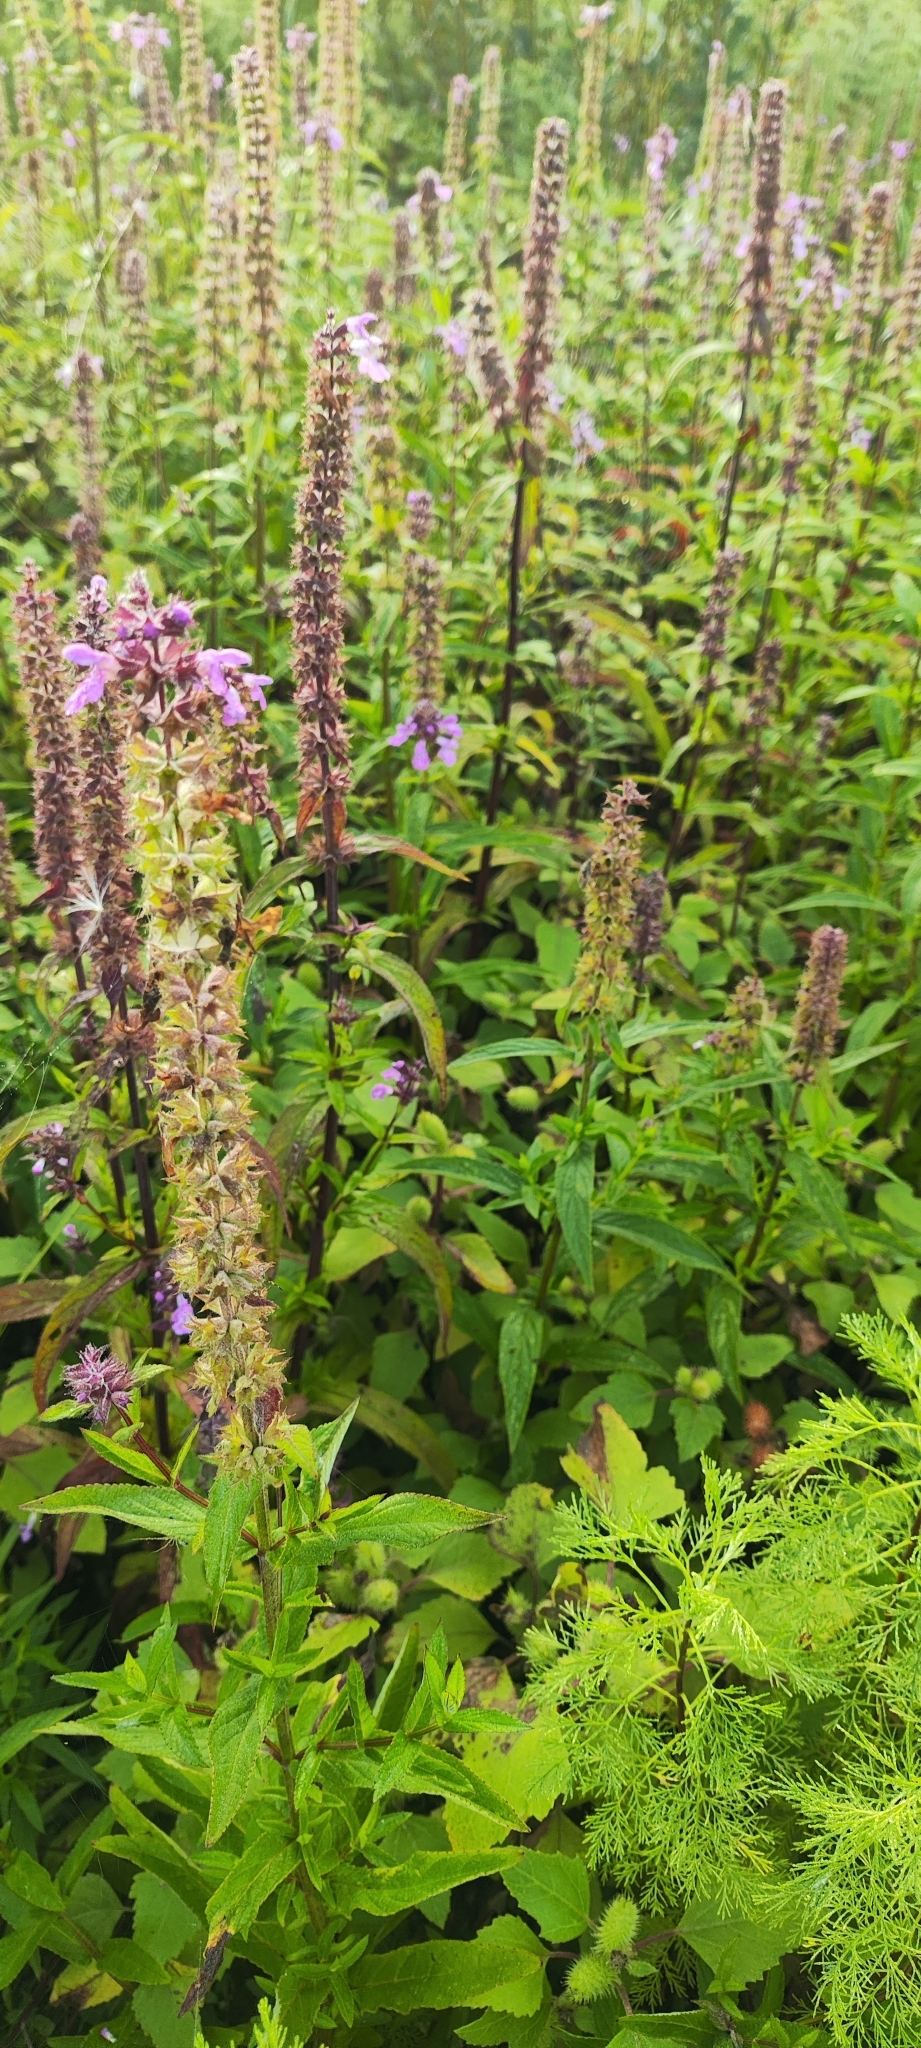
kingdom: Plantae
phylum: Tracheophyta
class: Magnoliopsida
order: Lamiales
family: Lamiaceae
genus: Stachys
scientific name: Stachys palustris
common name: Marsh woundwort
